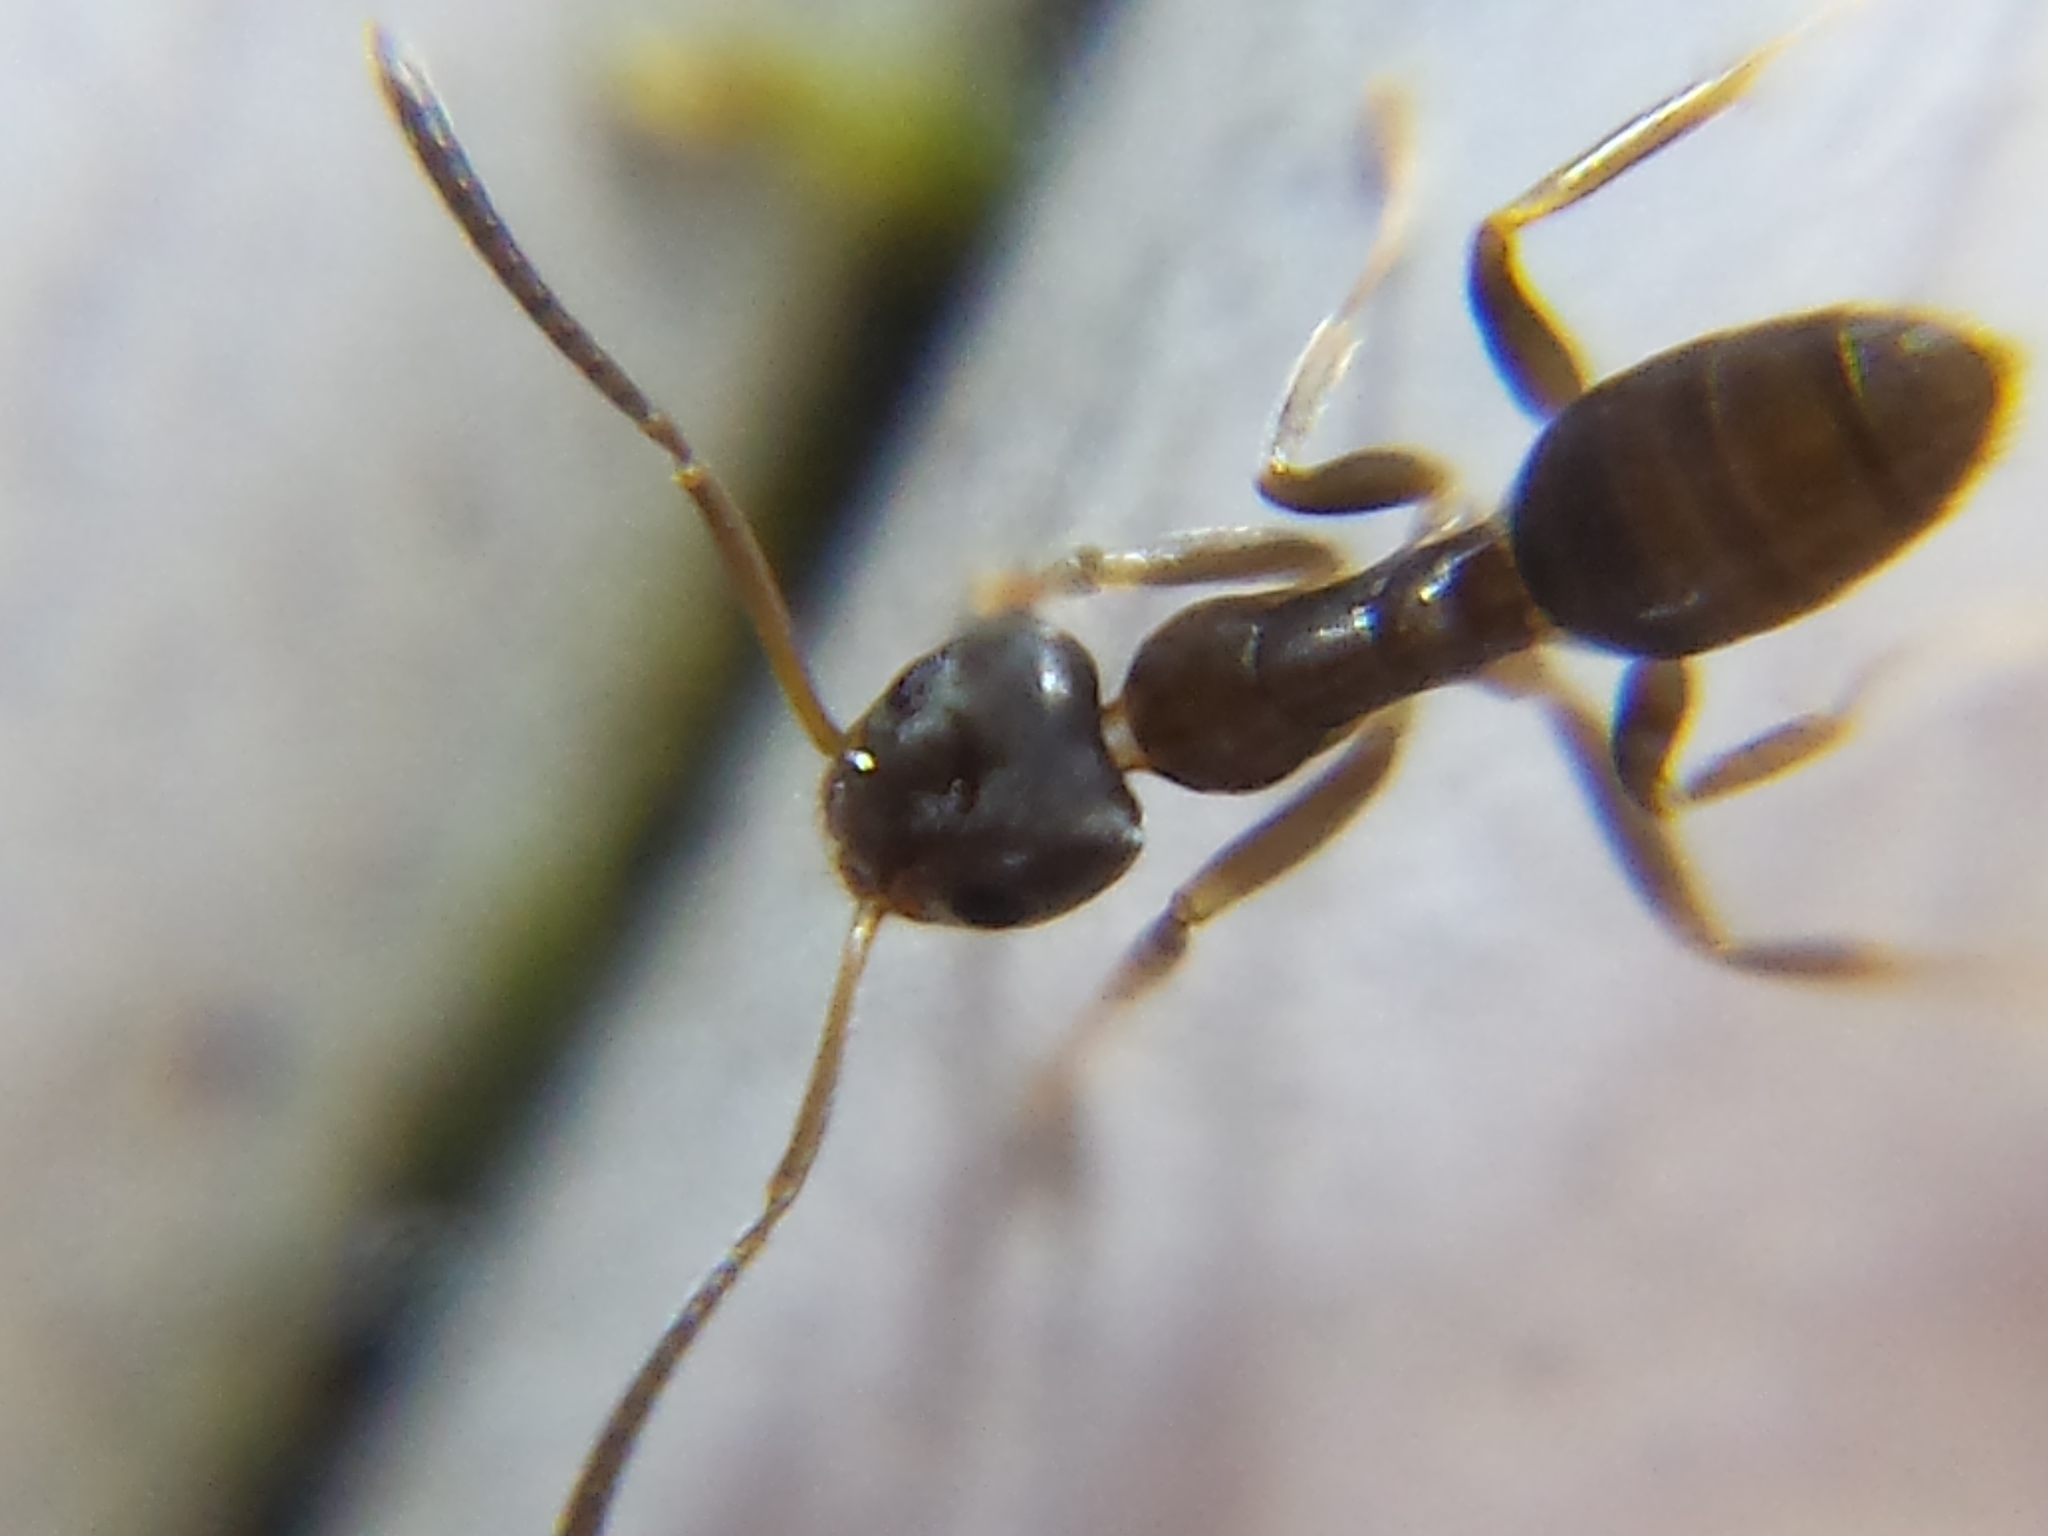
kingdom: Animalia
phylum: Arthropoda
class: Insecta
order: Hymenoptera
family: Formicidae
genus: Tapinoma
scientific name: Tapinoma sessile
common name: Odorous house ant
